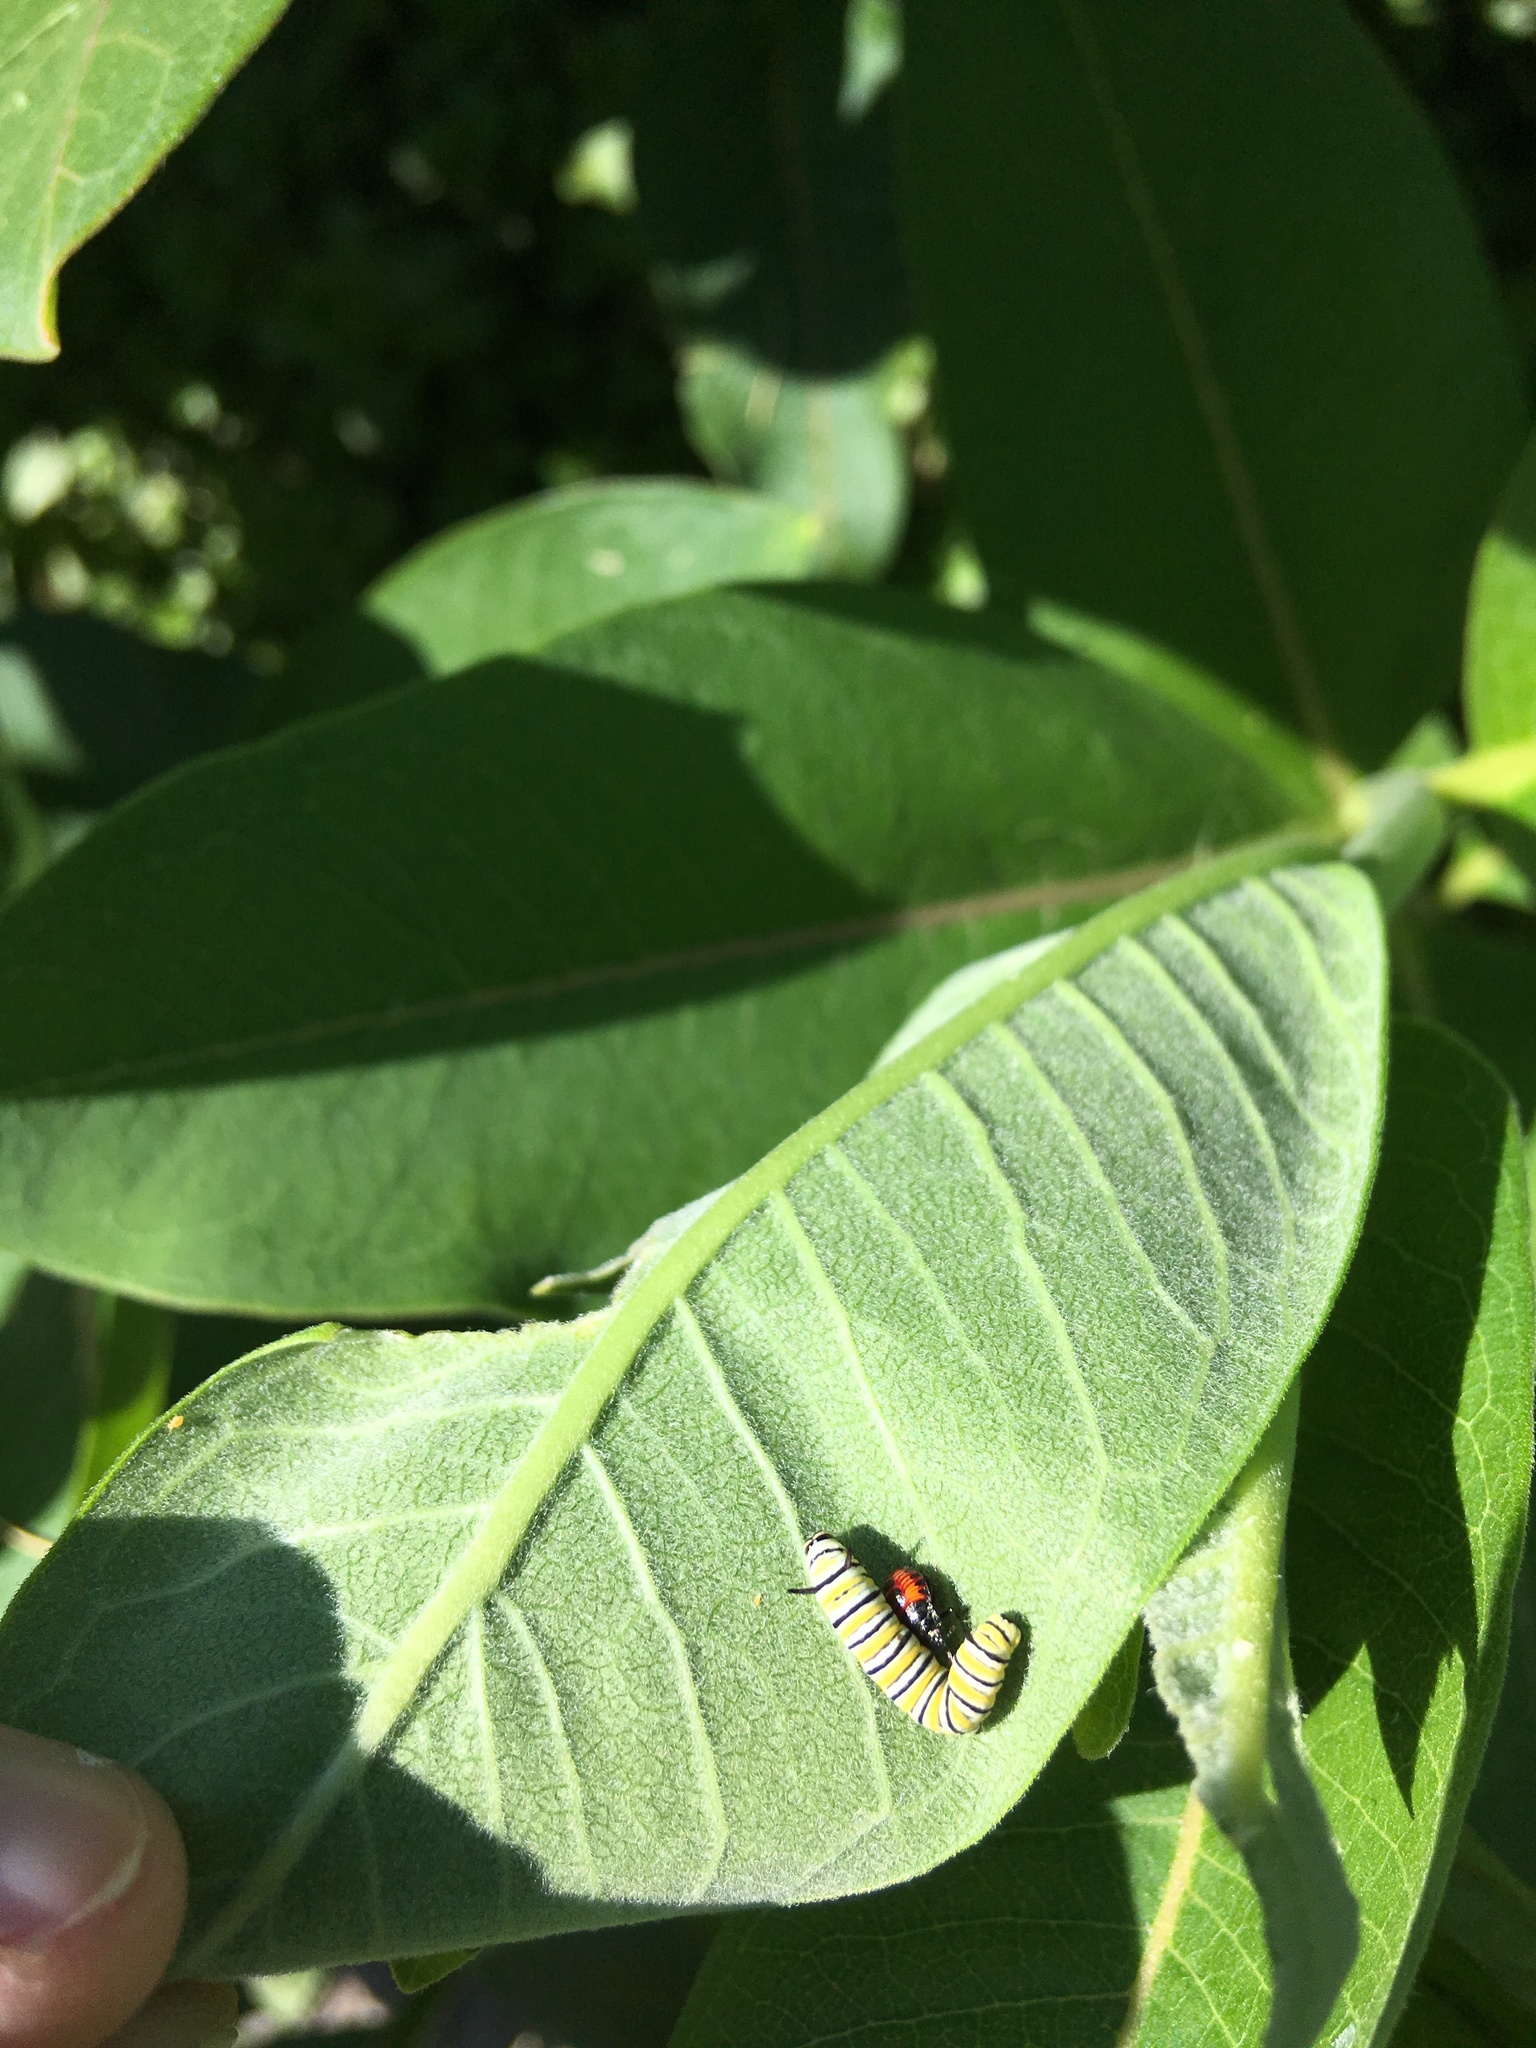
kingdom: Animalia
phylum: Arthropoda
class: Insecta
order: Lepidoptera
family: Nymphalidae
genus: Danaus
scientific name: Danaus plexippus
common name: Monarch
